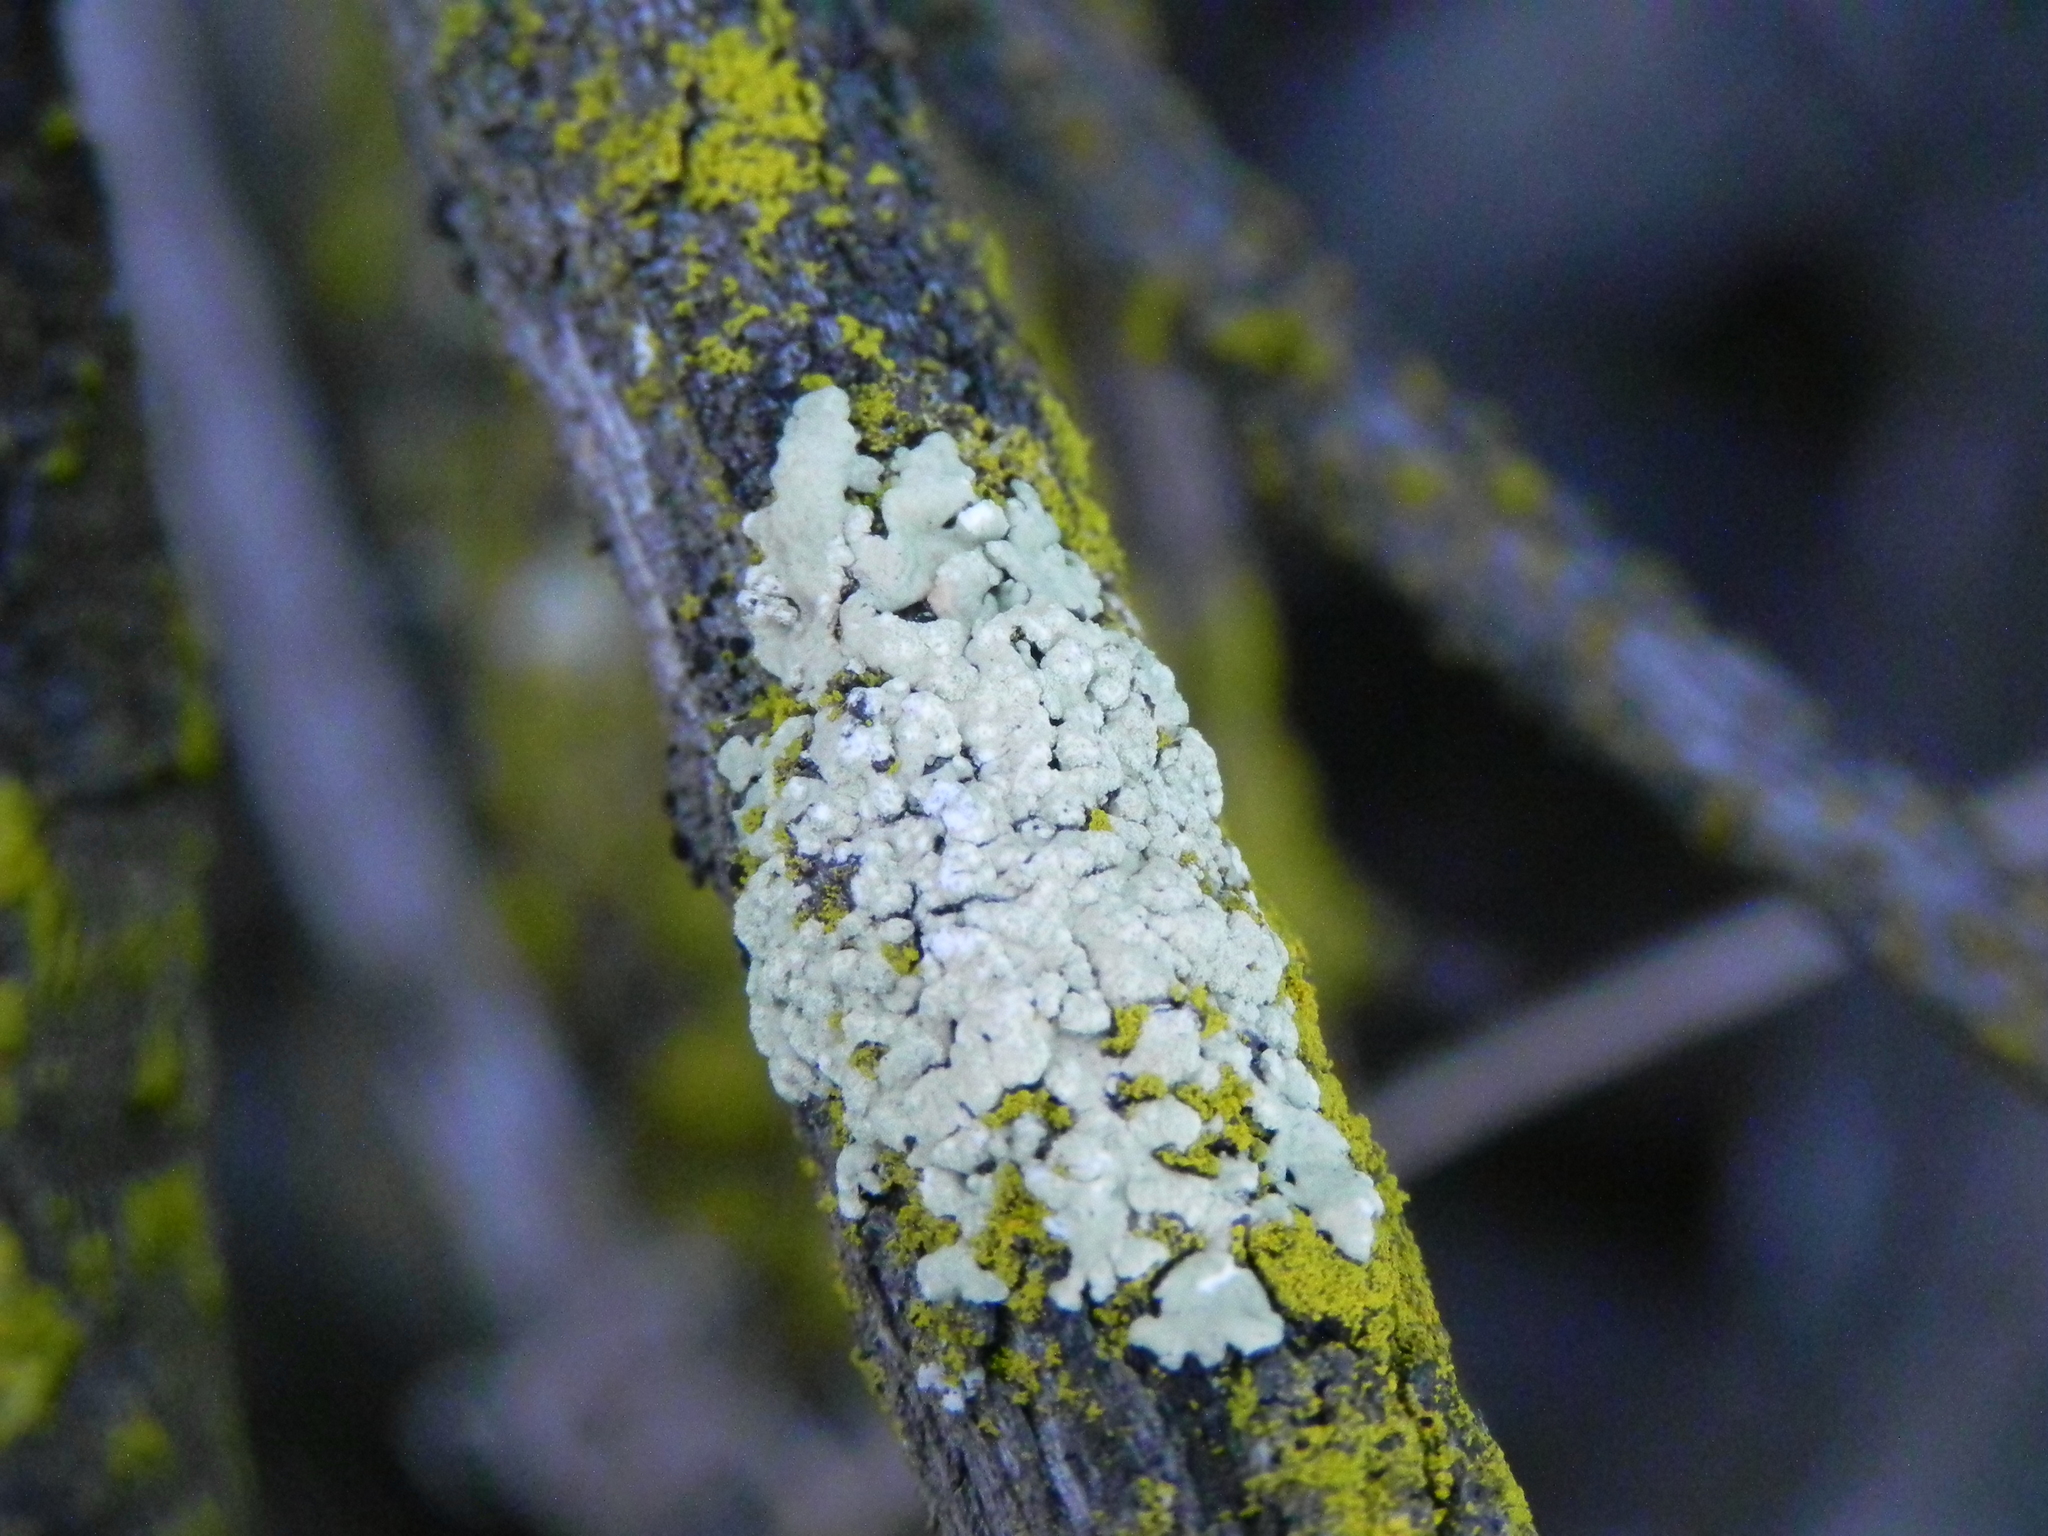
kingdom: Fungi
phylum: Ascomycota
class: Lecanoromycetes
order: Lecanorales
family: Parmeliaceae
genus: Flavoparmelia
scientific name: Flavoparmelia subcapitata
